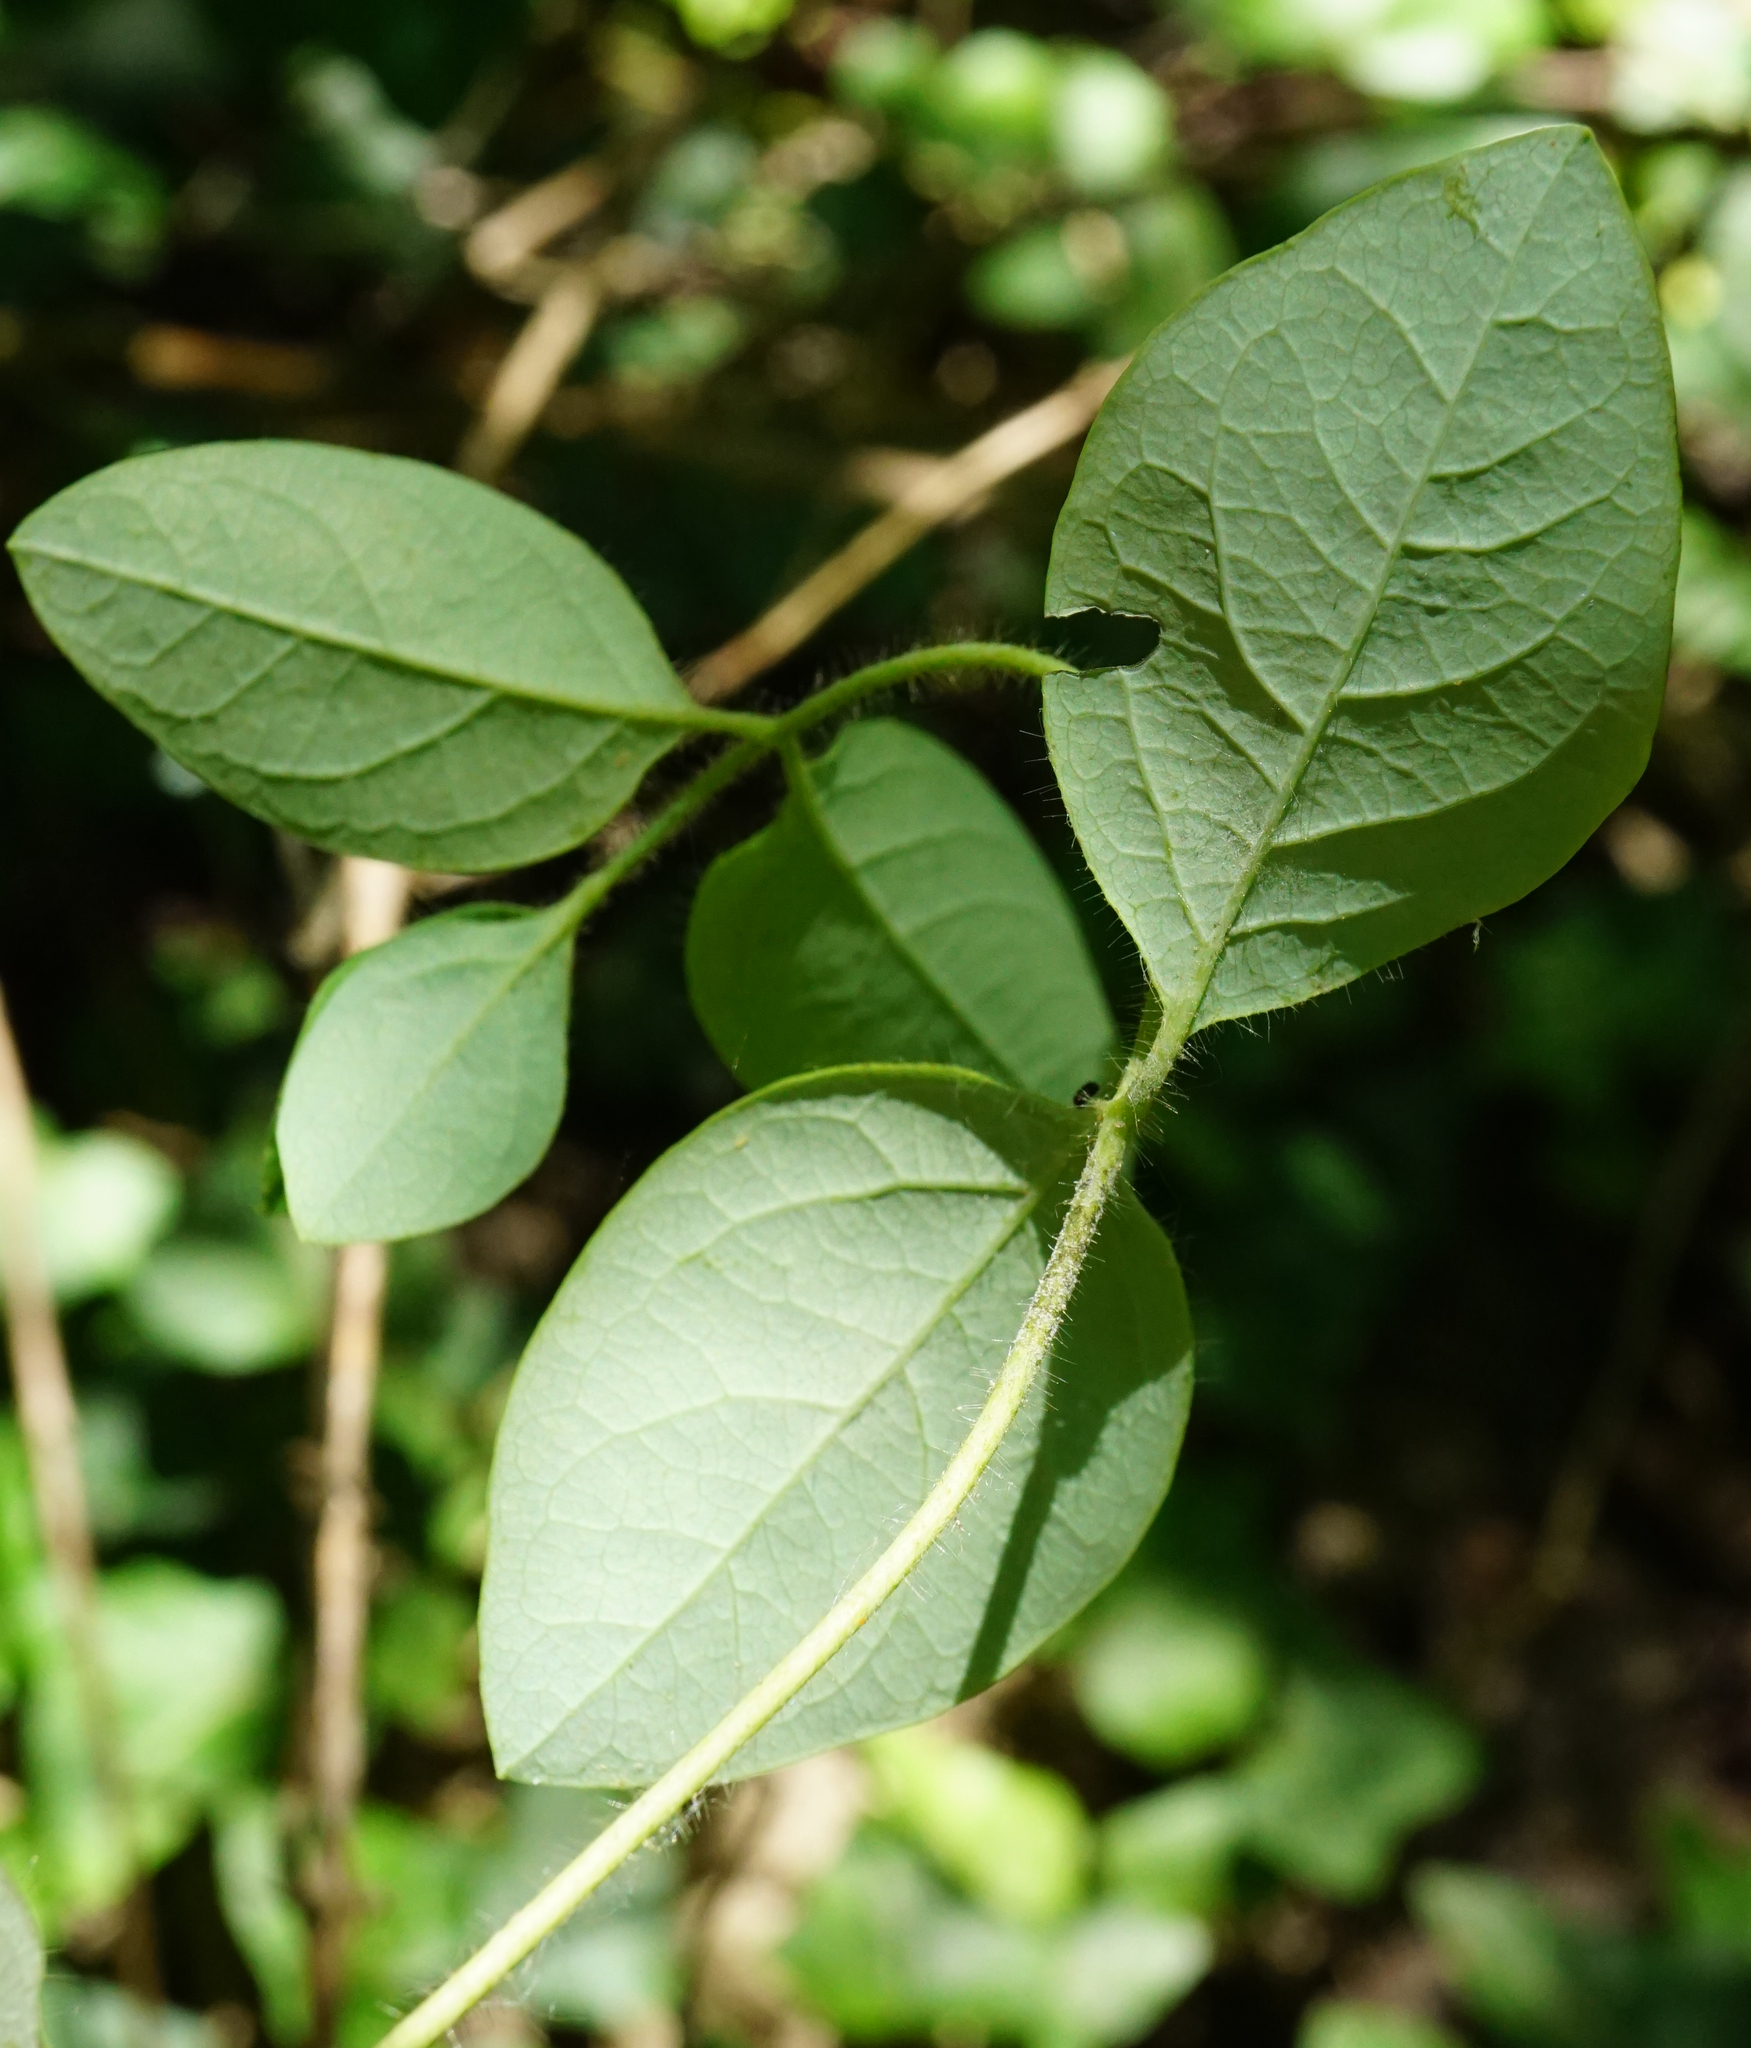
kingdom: Plantae
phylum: Tracheophyta
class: Magnoliopsida
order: Dipsacales
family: Caprifoliaceae
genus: Lonicera
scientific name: Lonicera caprifolium
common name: Perfoliate honeysuckle
